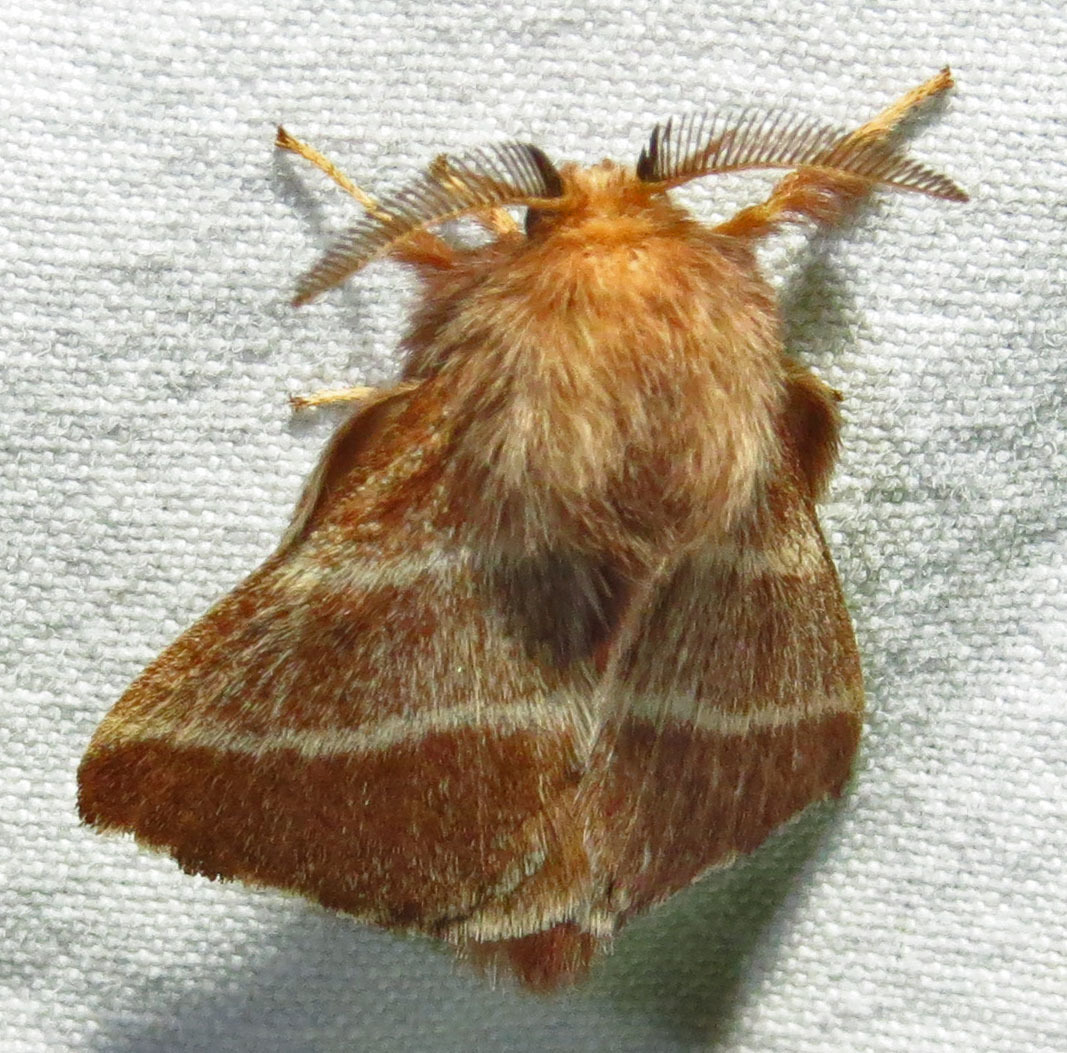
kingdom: Animalia
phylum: Arthropoda
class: Insecta
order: Lepidoptera
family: Lasiocampidae
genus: Malacosoma
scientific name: Malacosoma americana
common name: Eastern tent caterpillar moth
